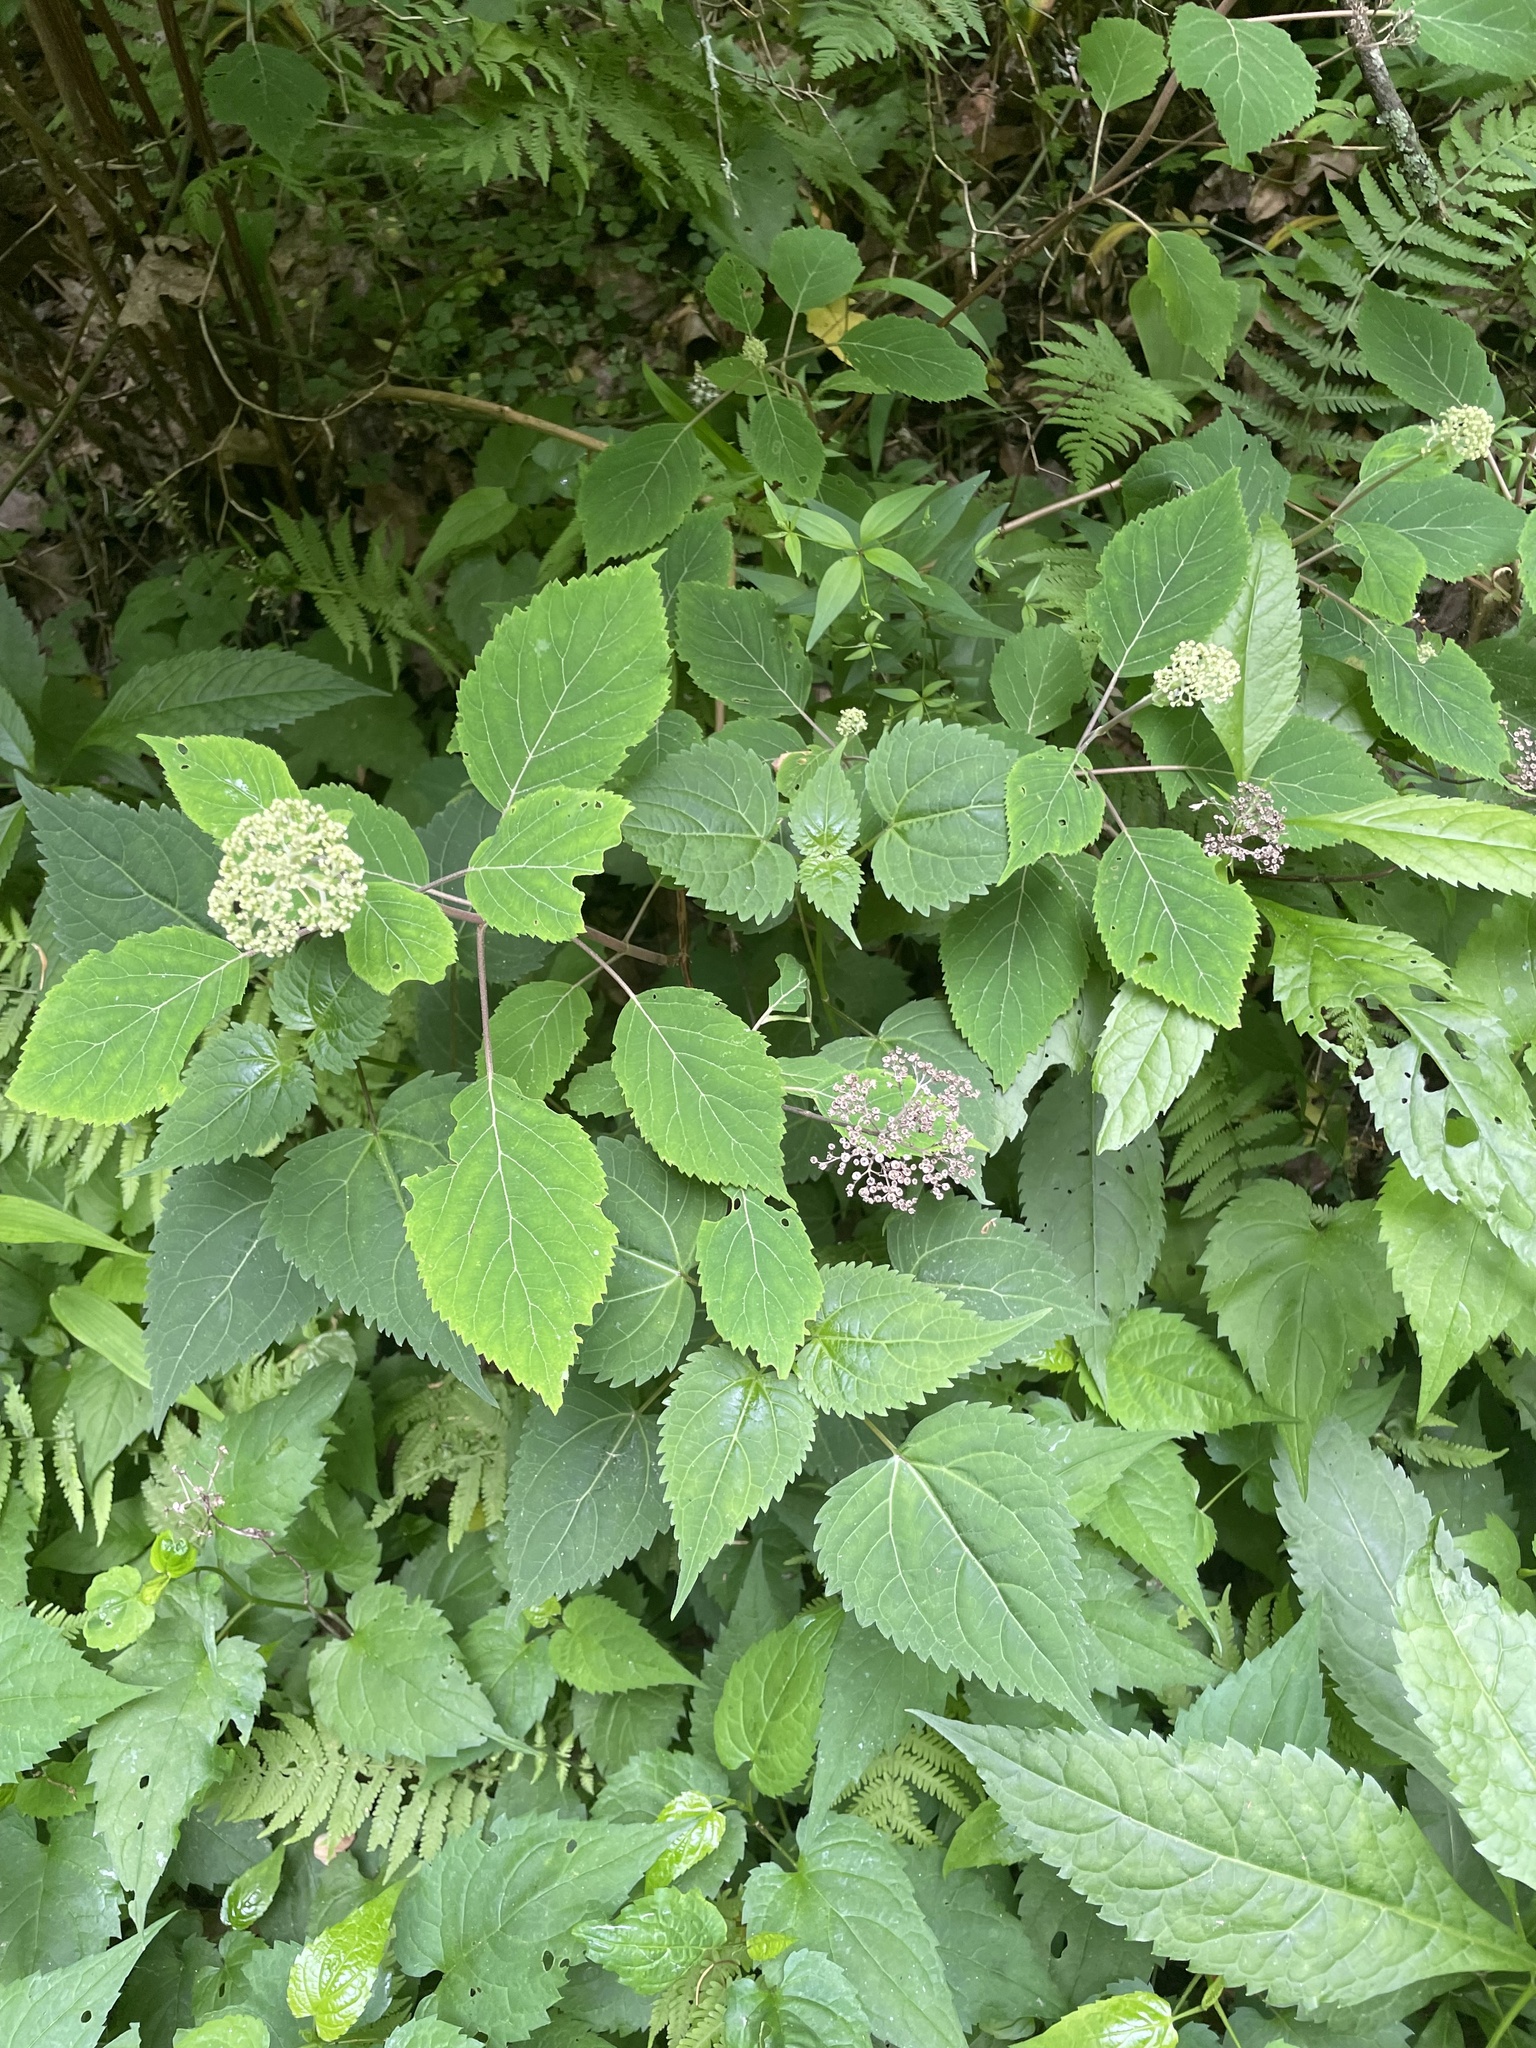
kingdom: Plantae
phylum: Tracheophyta
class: Magnoliopsida
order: Cornales
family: Hydrangeaceae
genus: Hydrangea
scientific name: Hydrangea arborescens
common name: Sevenbark
